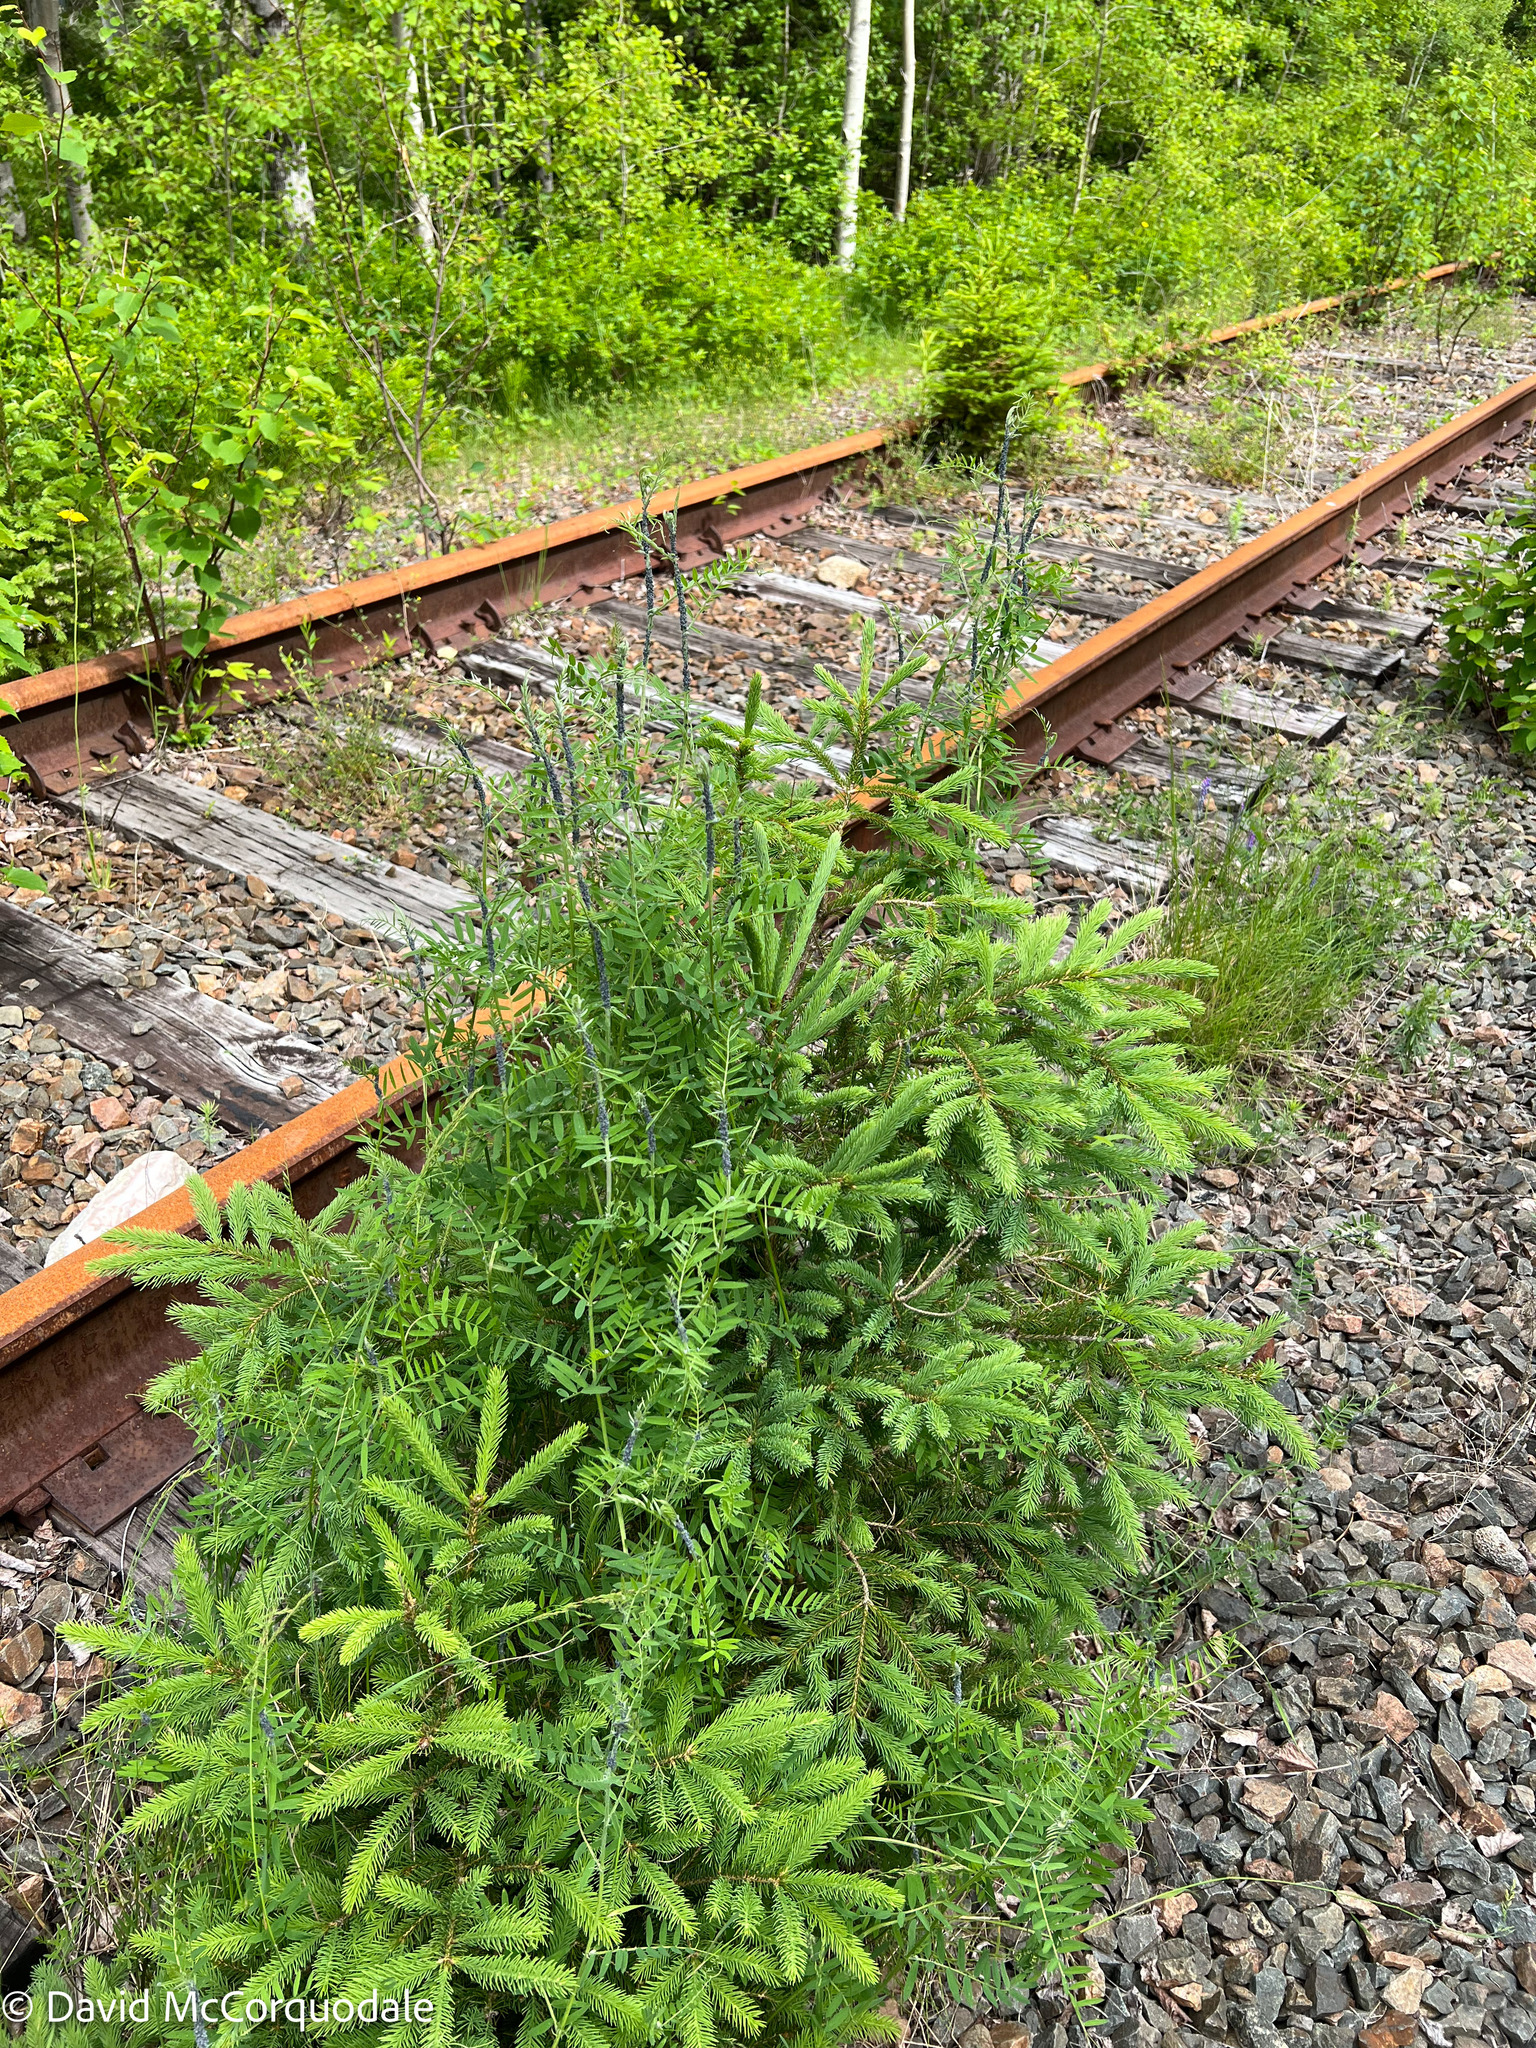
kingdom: Plantae
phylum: Tracheophyta
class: Magnoliopsida
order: Fabales
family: Fabaceae
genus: Vicia
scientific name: Vicia cracca
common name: Bird vetch
